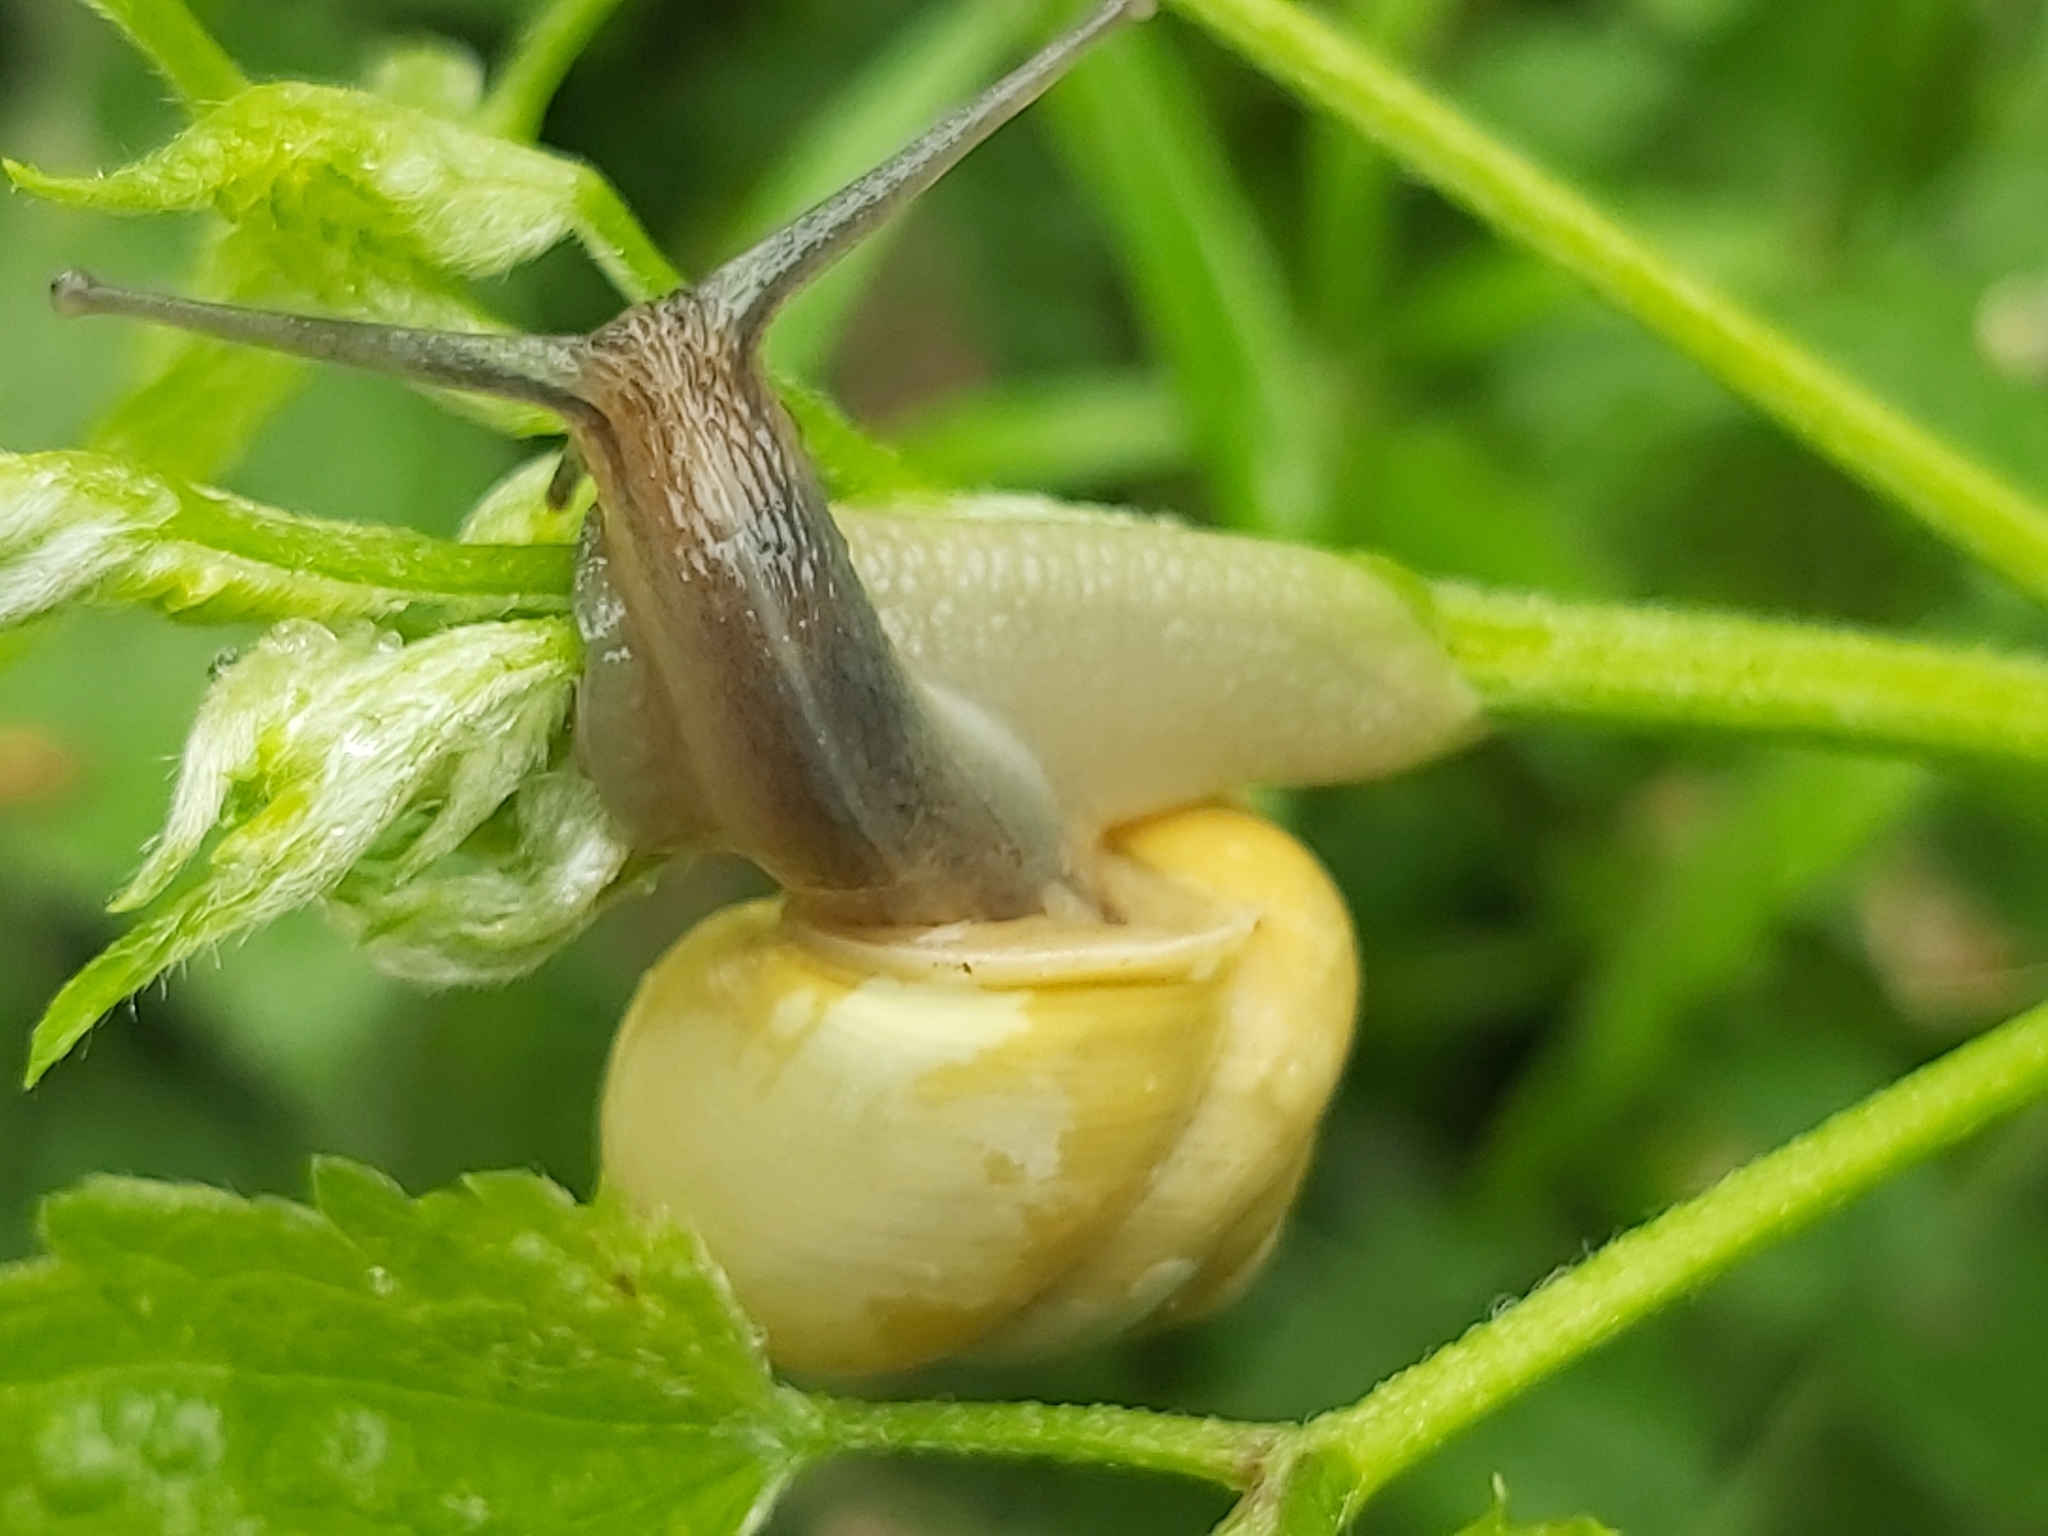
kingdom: Animalia
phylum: Mollusca
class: Gastropoda
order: Stylommatophora
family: Helicidae
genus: Cepaea
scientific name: Cepaea hortensis
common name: White-lip gardensnail
